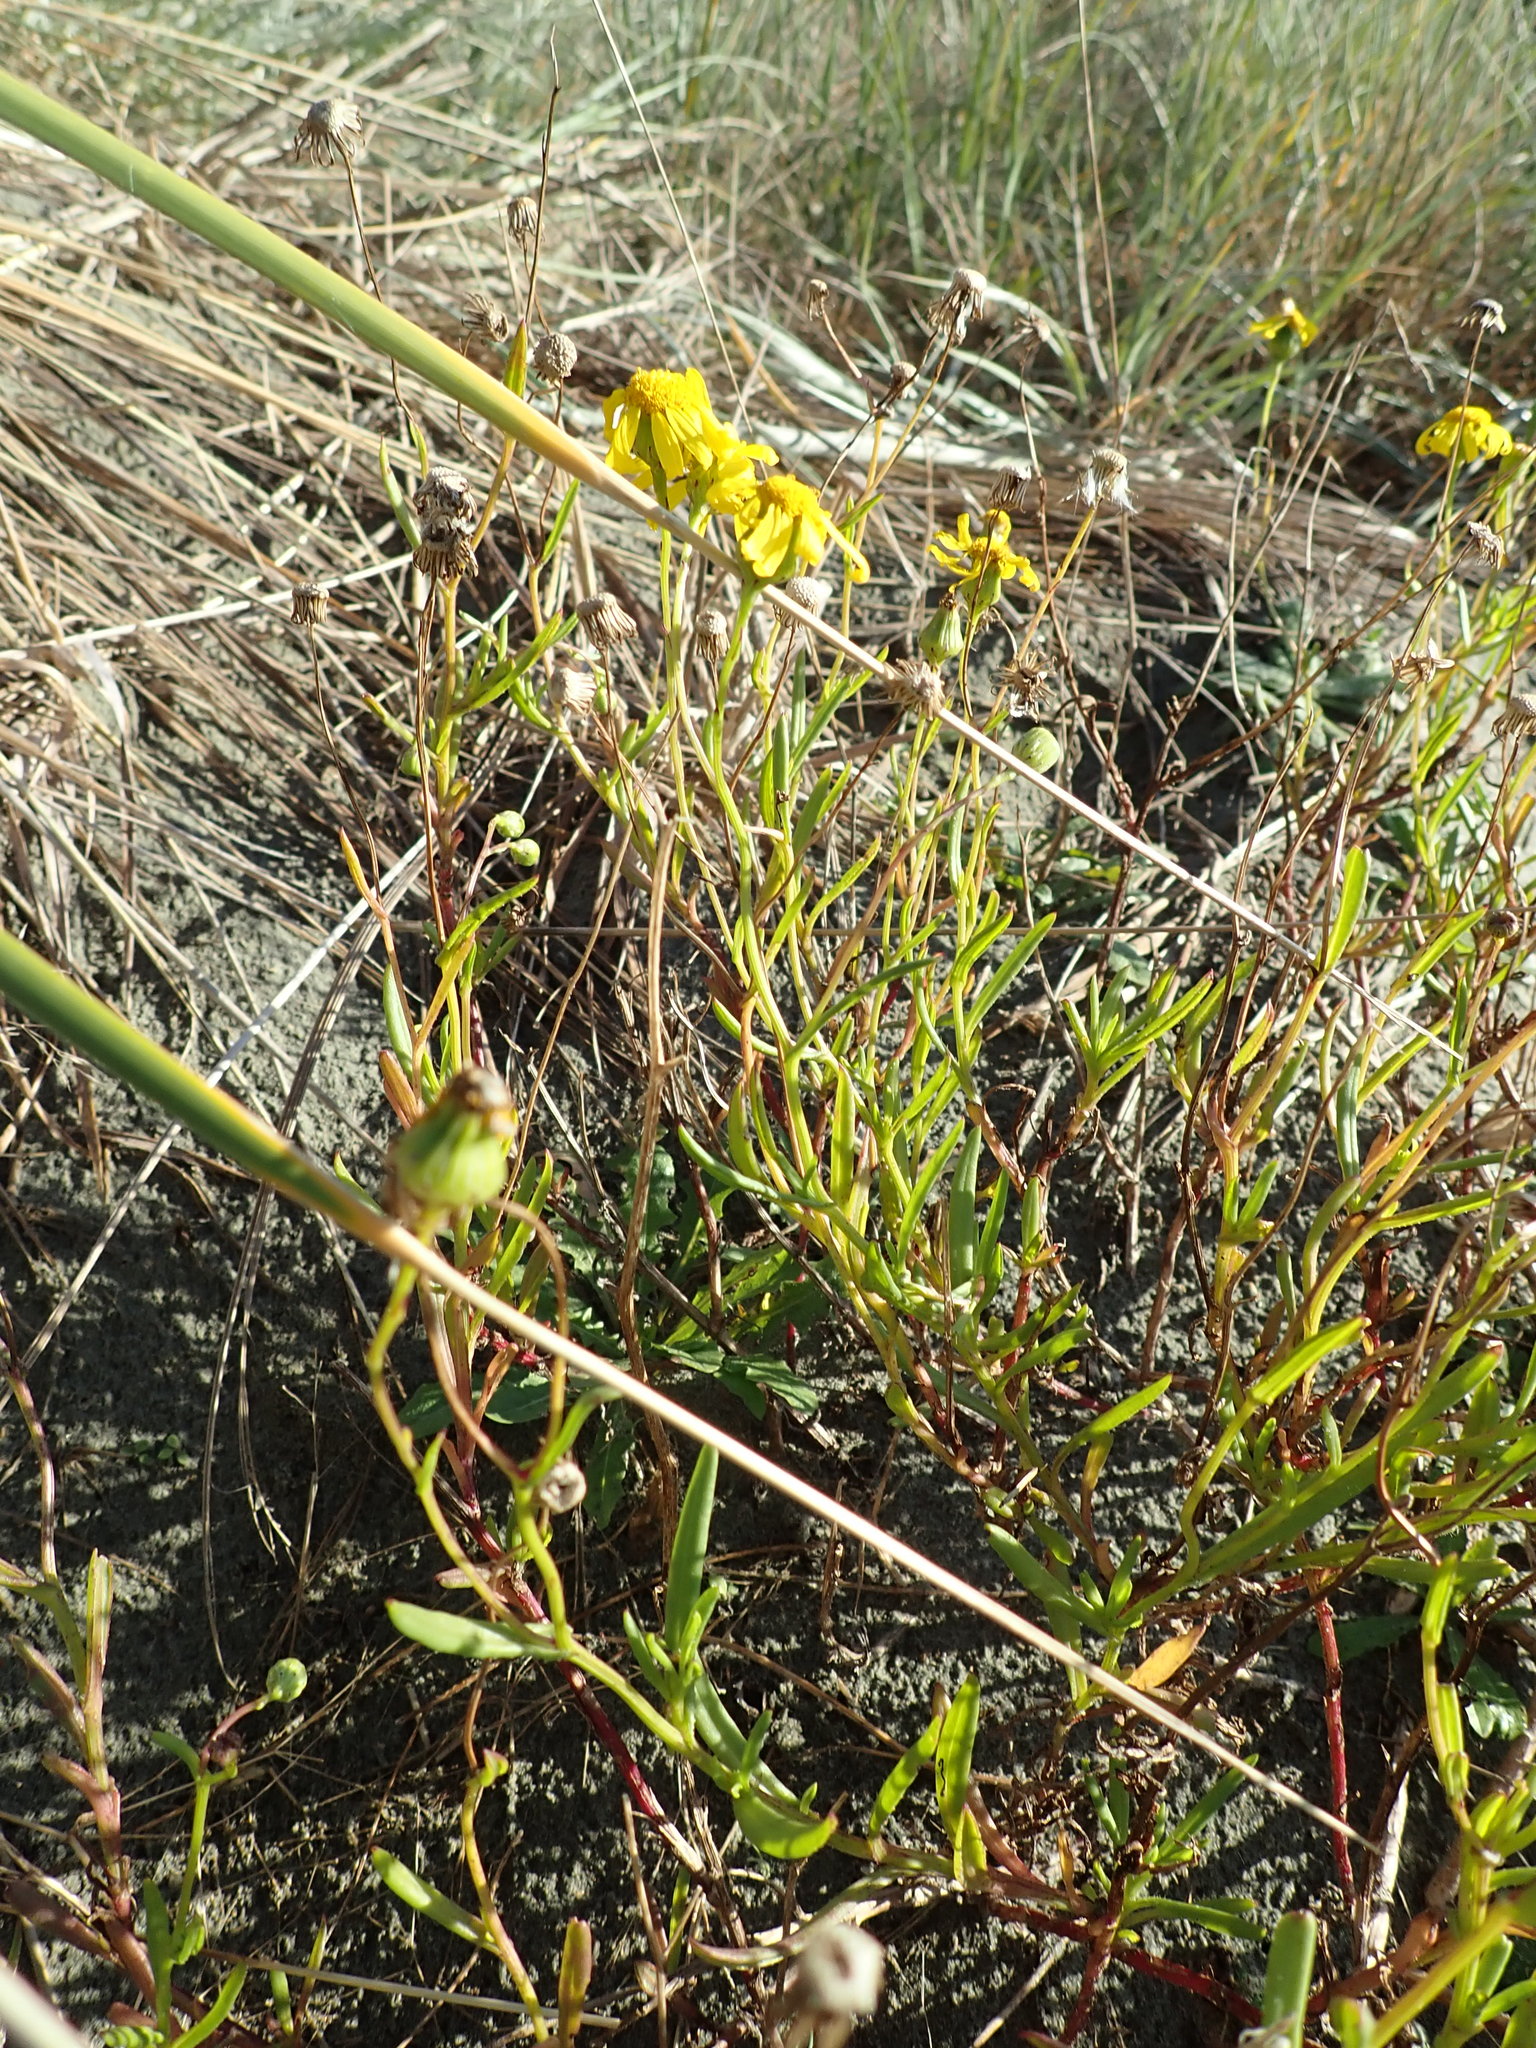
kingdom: Plantae
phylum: Tracheophyta
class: Magnoliopsida
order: Asterales
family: Asteraceae
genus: Senecio
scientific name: Senecio skirrhodon
